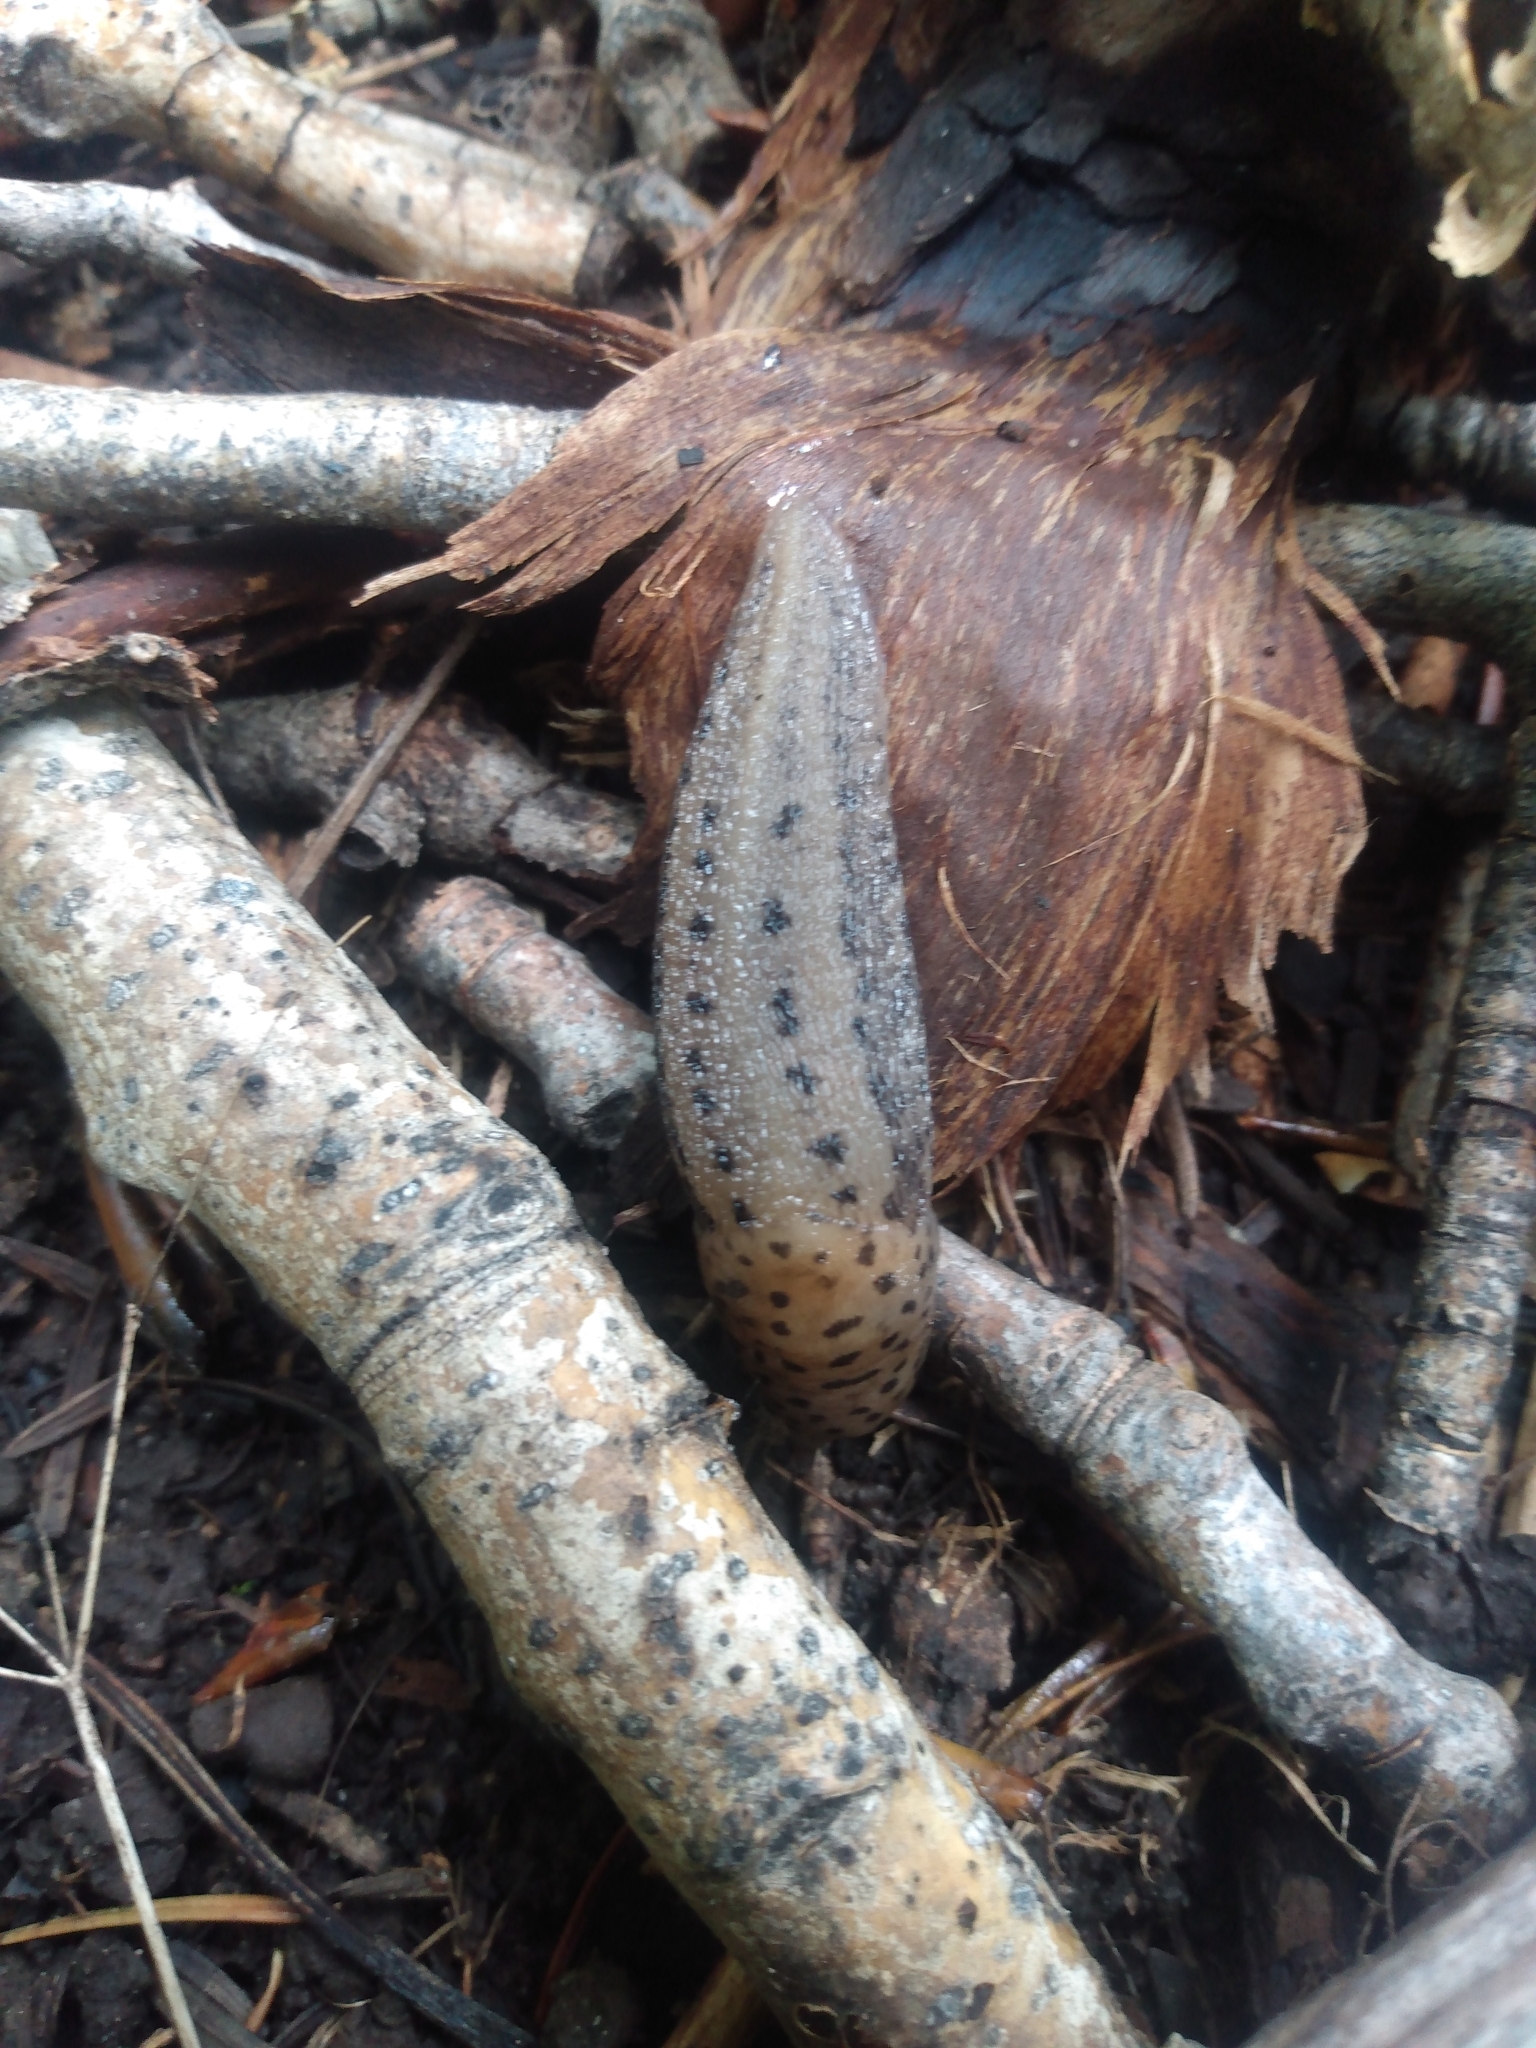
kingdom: Animalia
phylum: Mollusca
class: Gastropoda
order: Stylommatophora
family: Limacidae
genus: Limax
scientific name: Limax maximus
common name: Great grey slug
